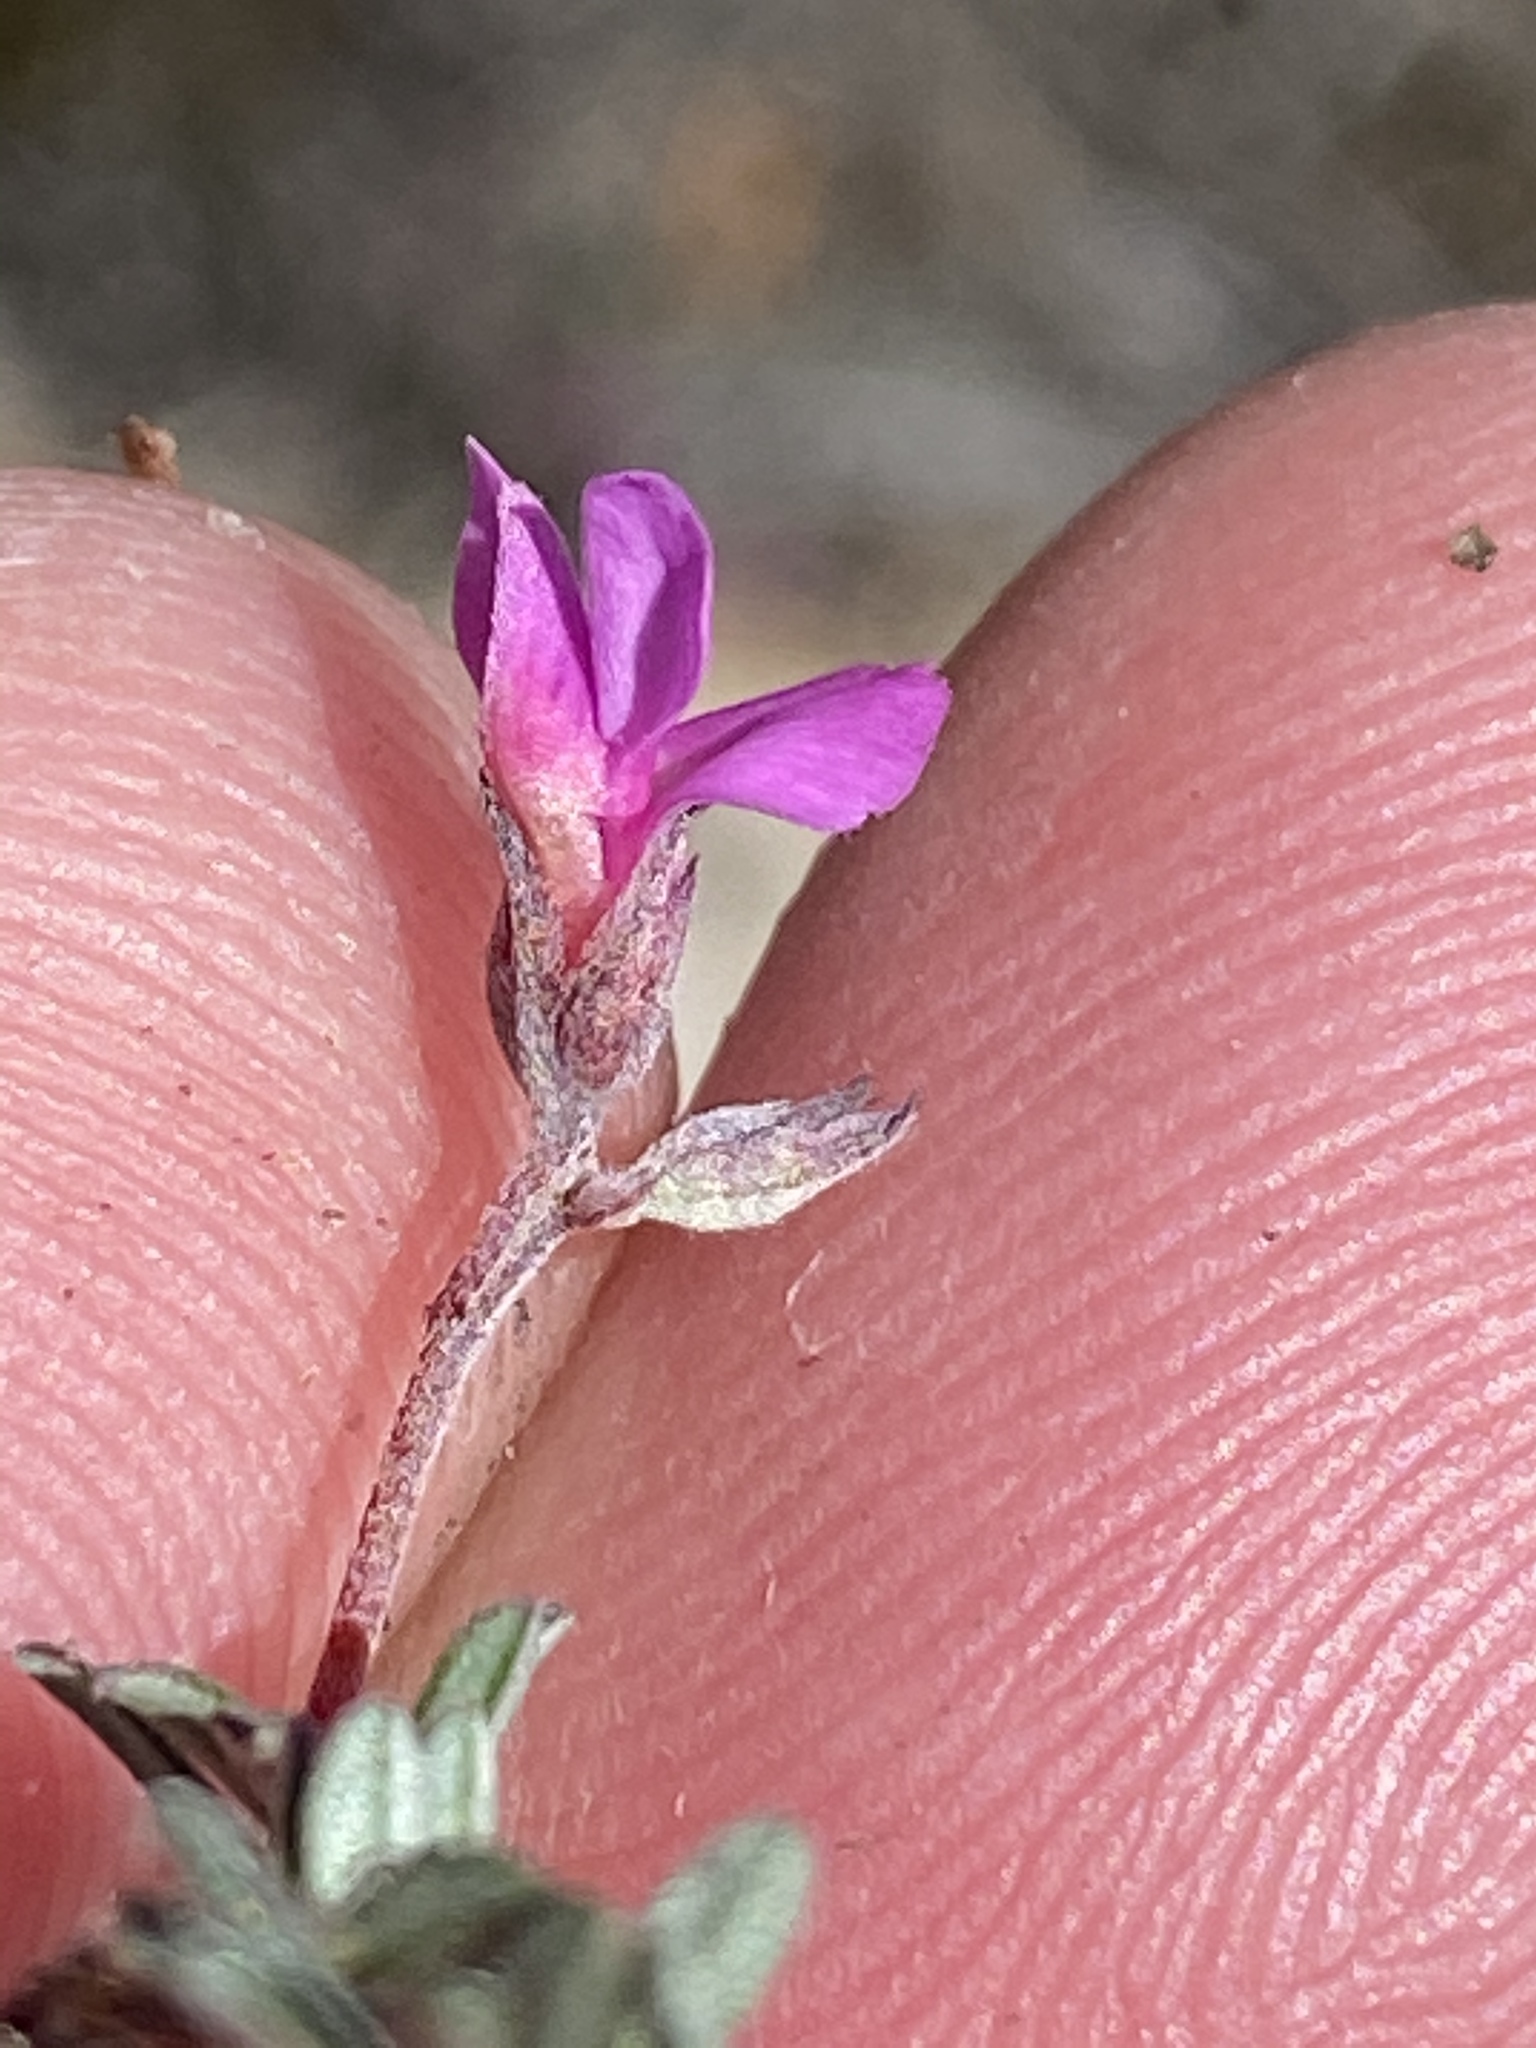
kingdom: Plantae
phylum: Tracheophyta
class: Magnoliopsida
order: Fabales
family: Fabaceae
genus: Indigofera
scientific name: Indigofera
